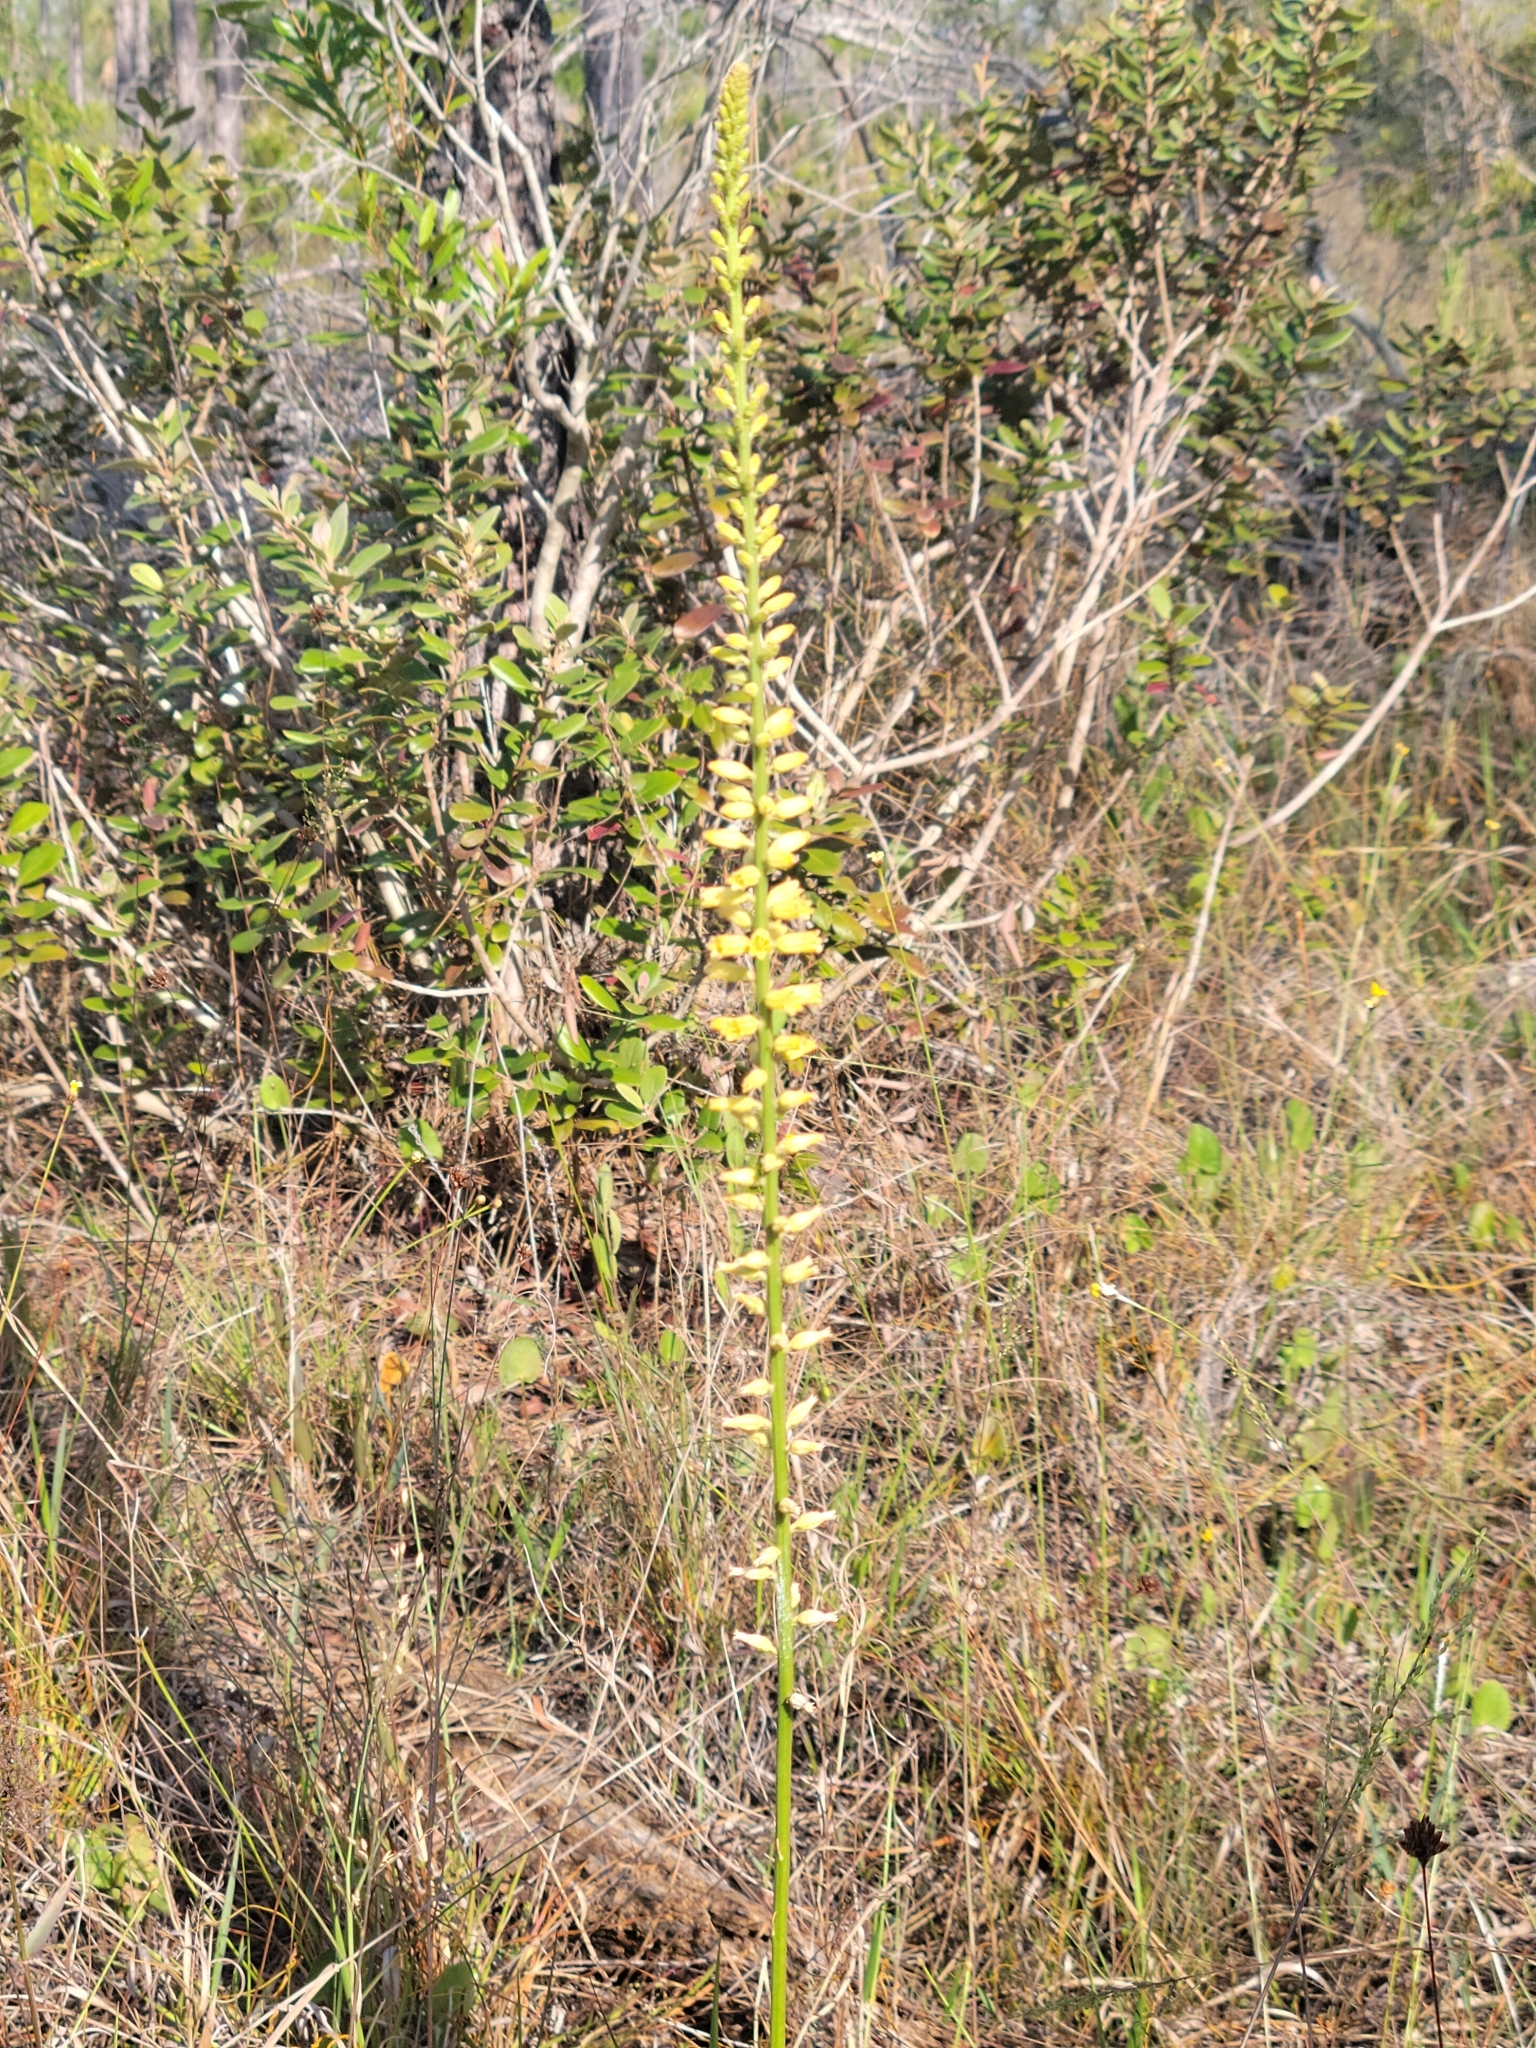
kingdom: Plantae
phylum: Tracheophyta
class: Liliopsida
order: Dioscoreales
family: Nartheciaceae
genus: Aletris
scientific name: Aletris lutea
